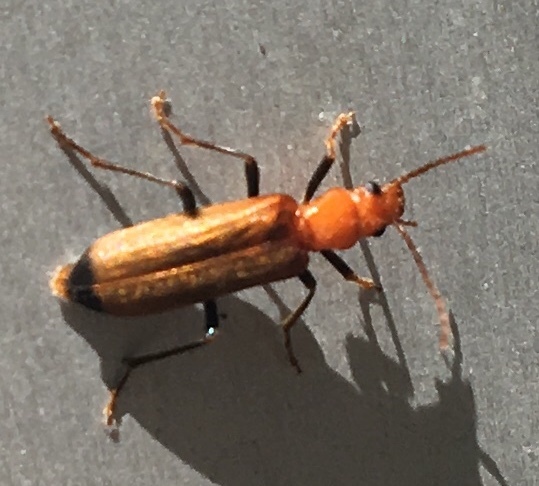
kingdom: Animalia
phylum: Arthropoda
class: Insecta
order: Coleoptera
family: Oedemeridae
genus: Nacerdes
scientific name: Nacerdes melanura
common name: Wharf borer
